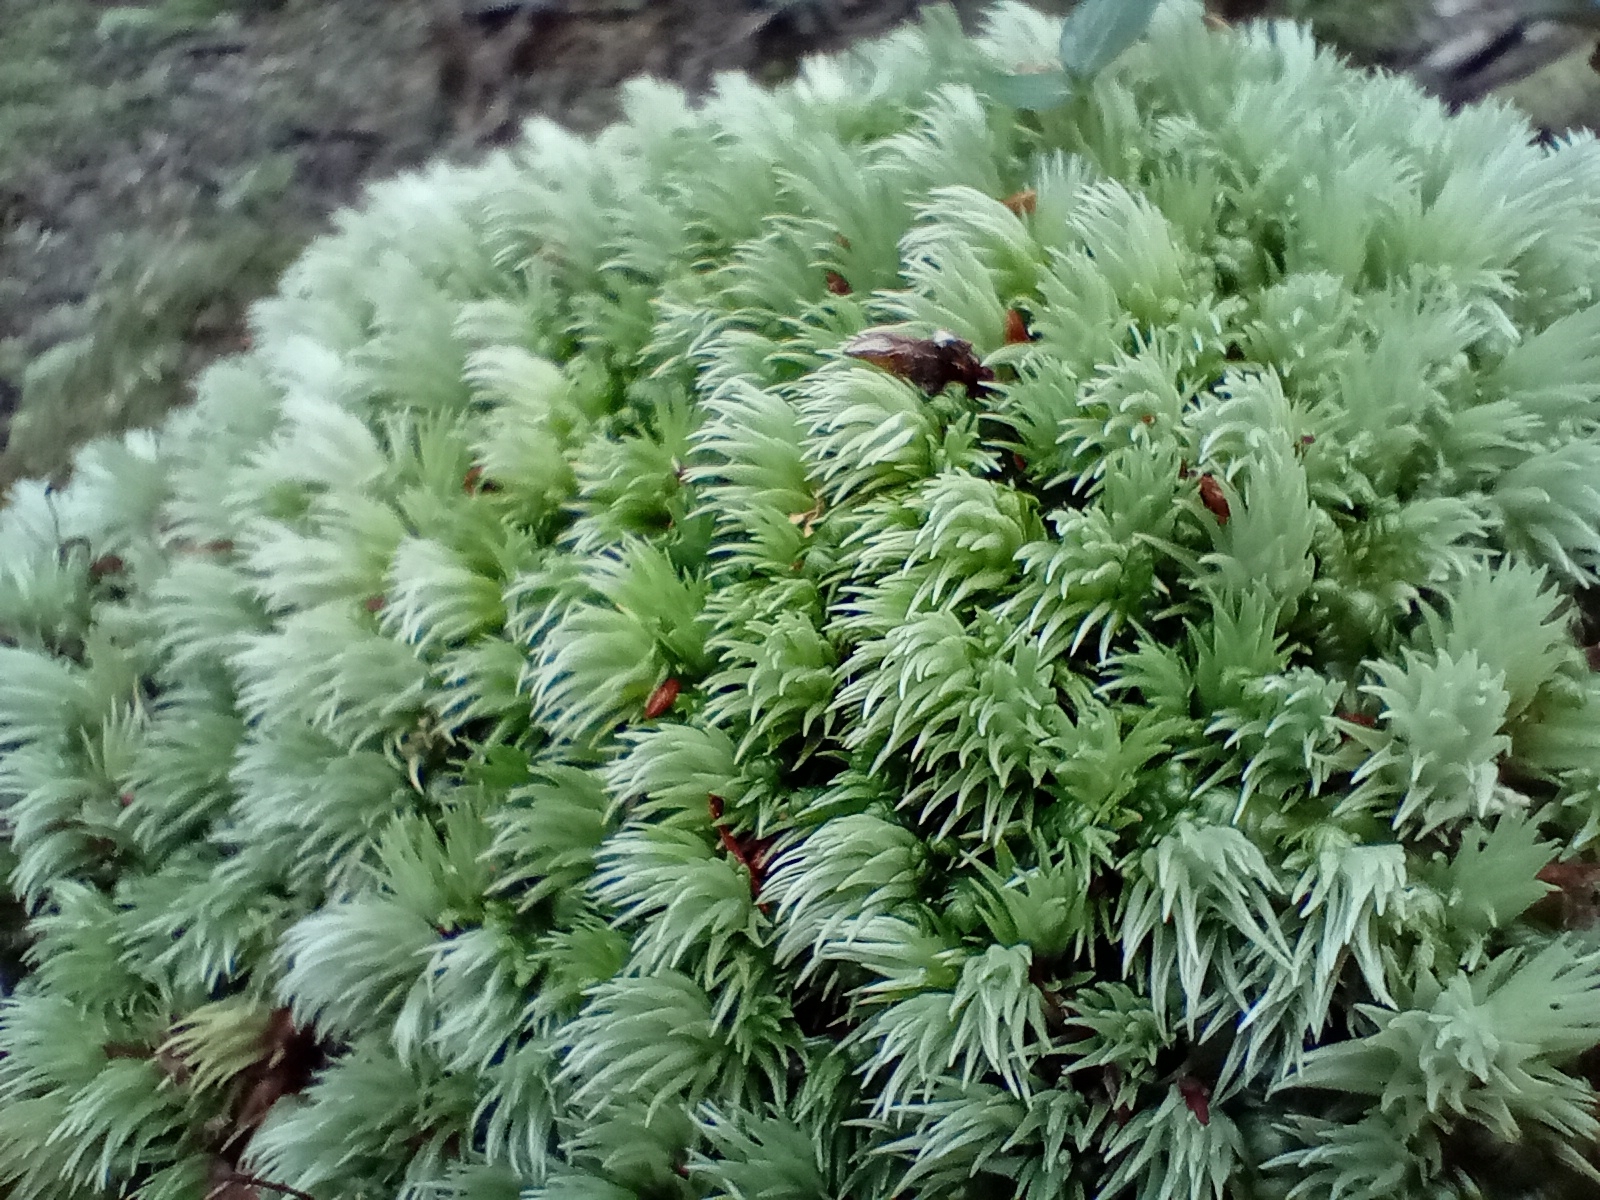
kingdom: Plantae
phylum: Bryophyta
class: Bryopsida
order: Dicranales
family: Leucobryaceae
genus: Leucobryum
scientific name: Leucobryum javense
